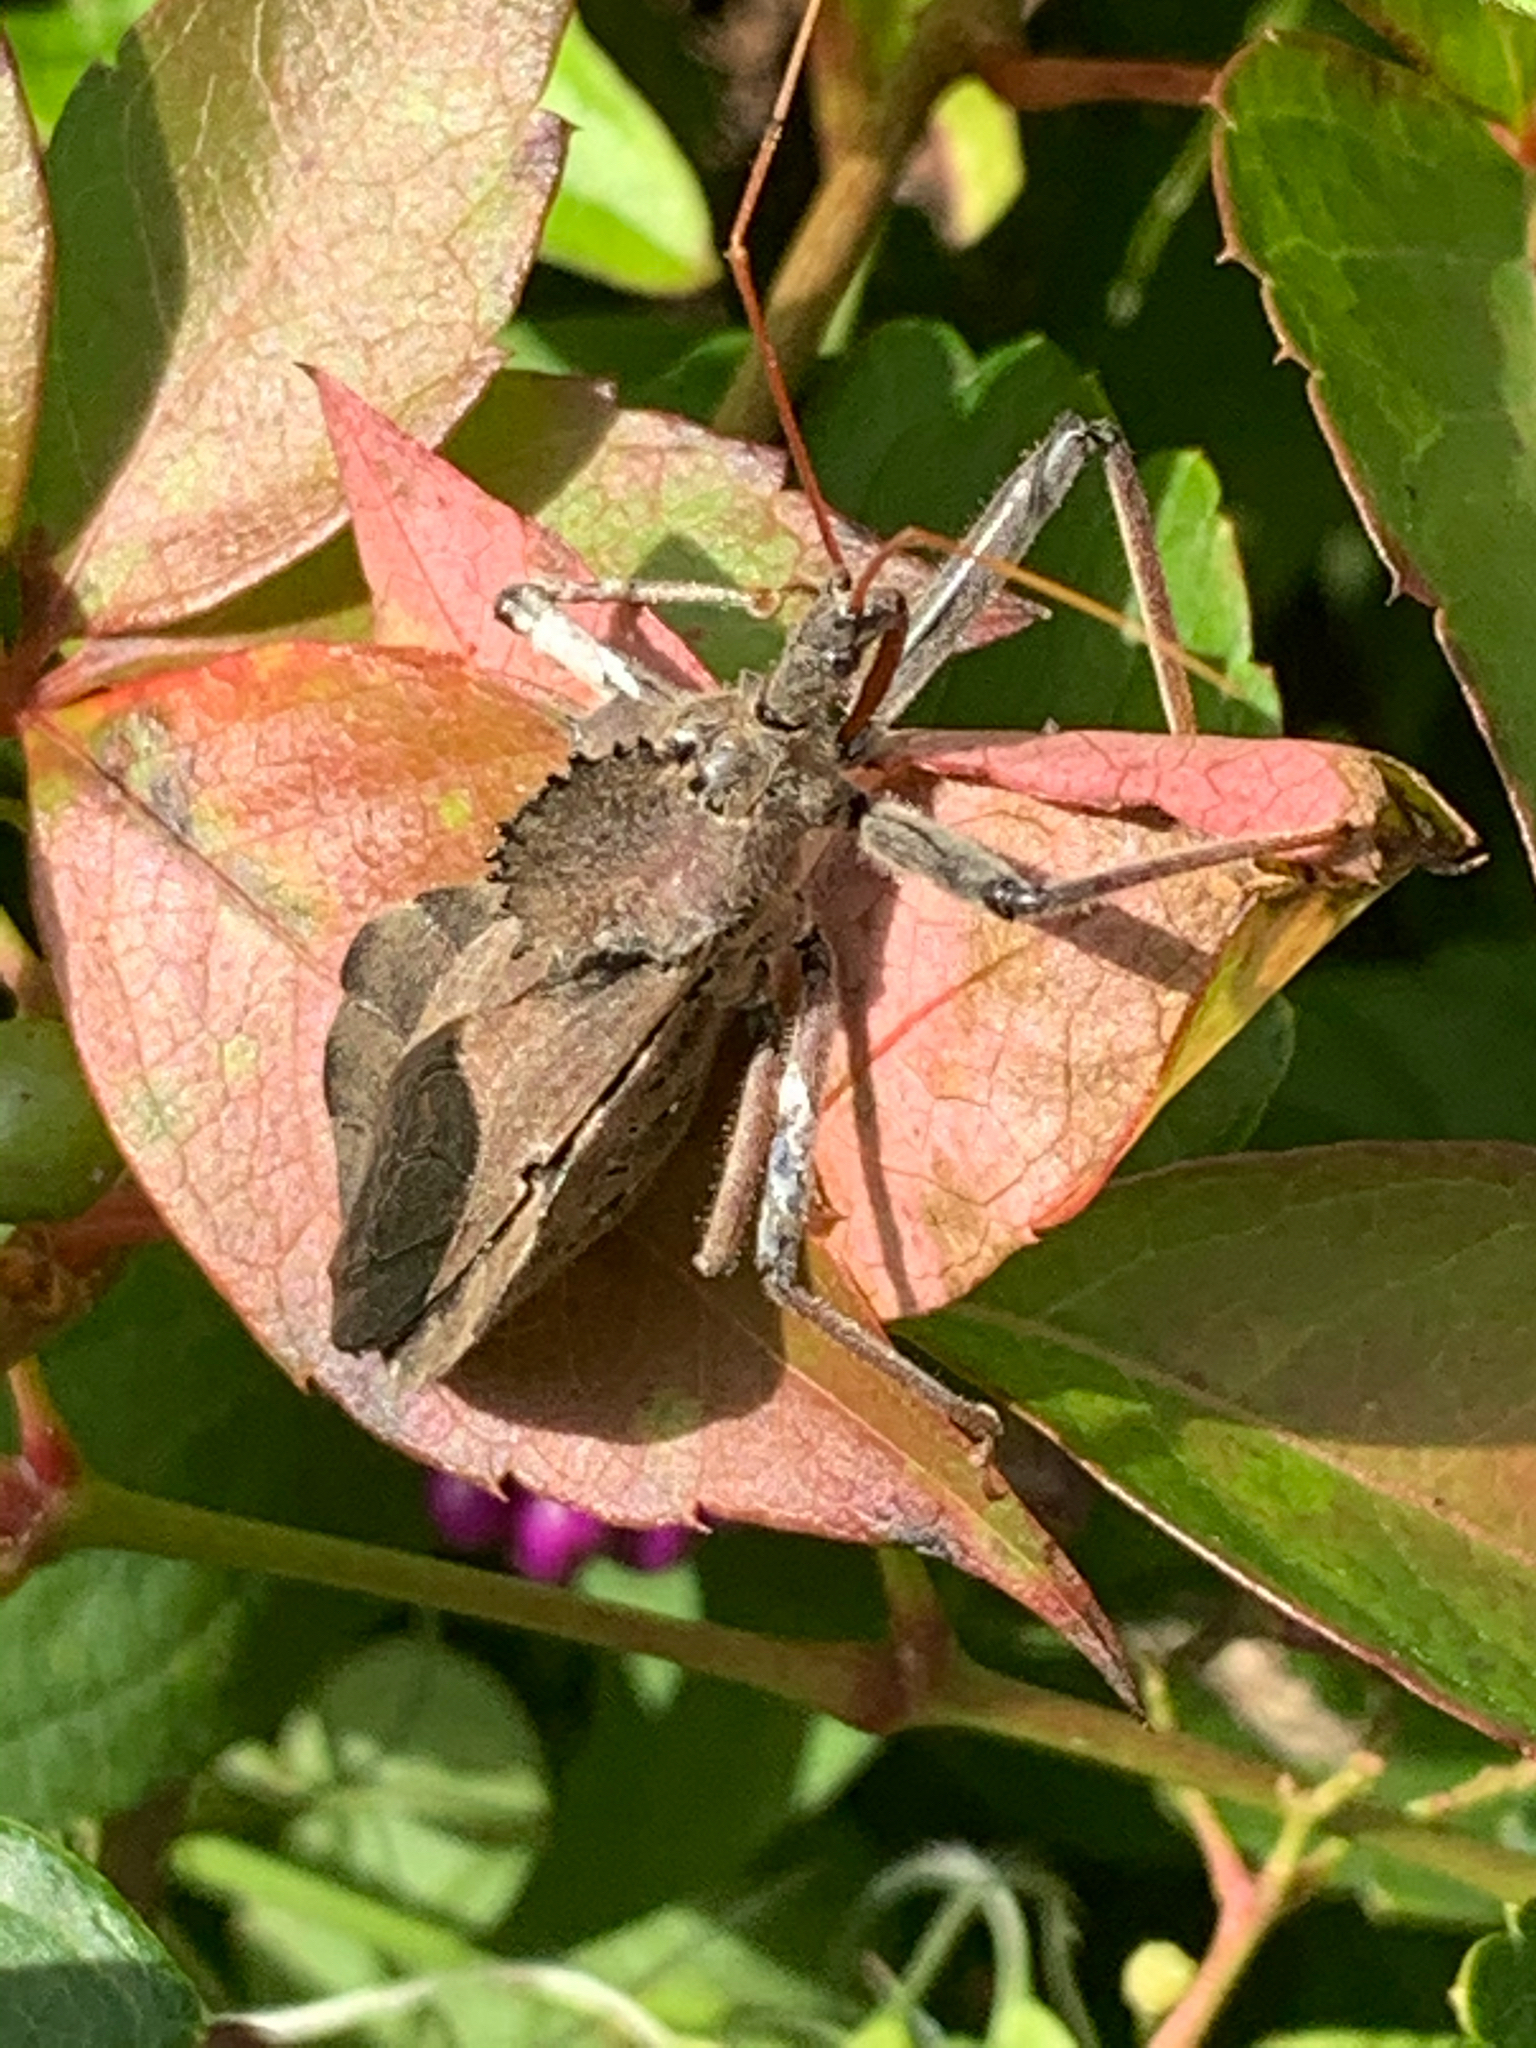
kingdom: Animalia
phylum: Arthropoda
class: Insecta
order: Hemiptera
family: Reduviidae
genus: Arilus
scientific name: Arilus cristatus
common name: North american wheel bug
